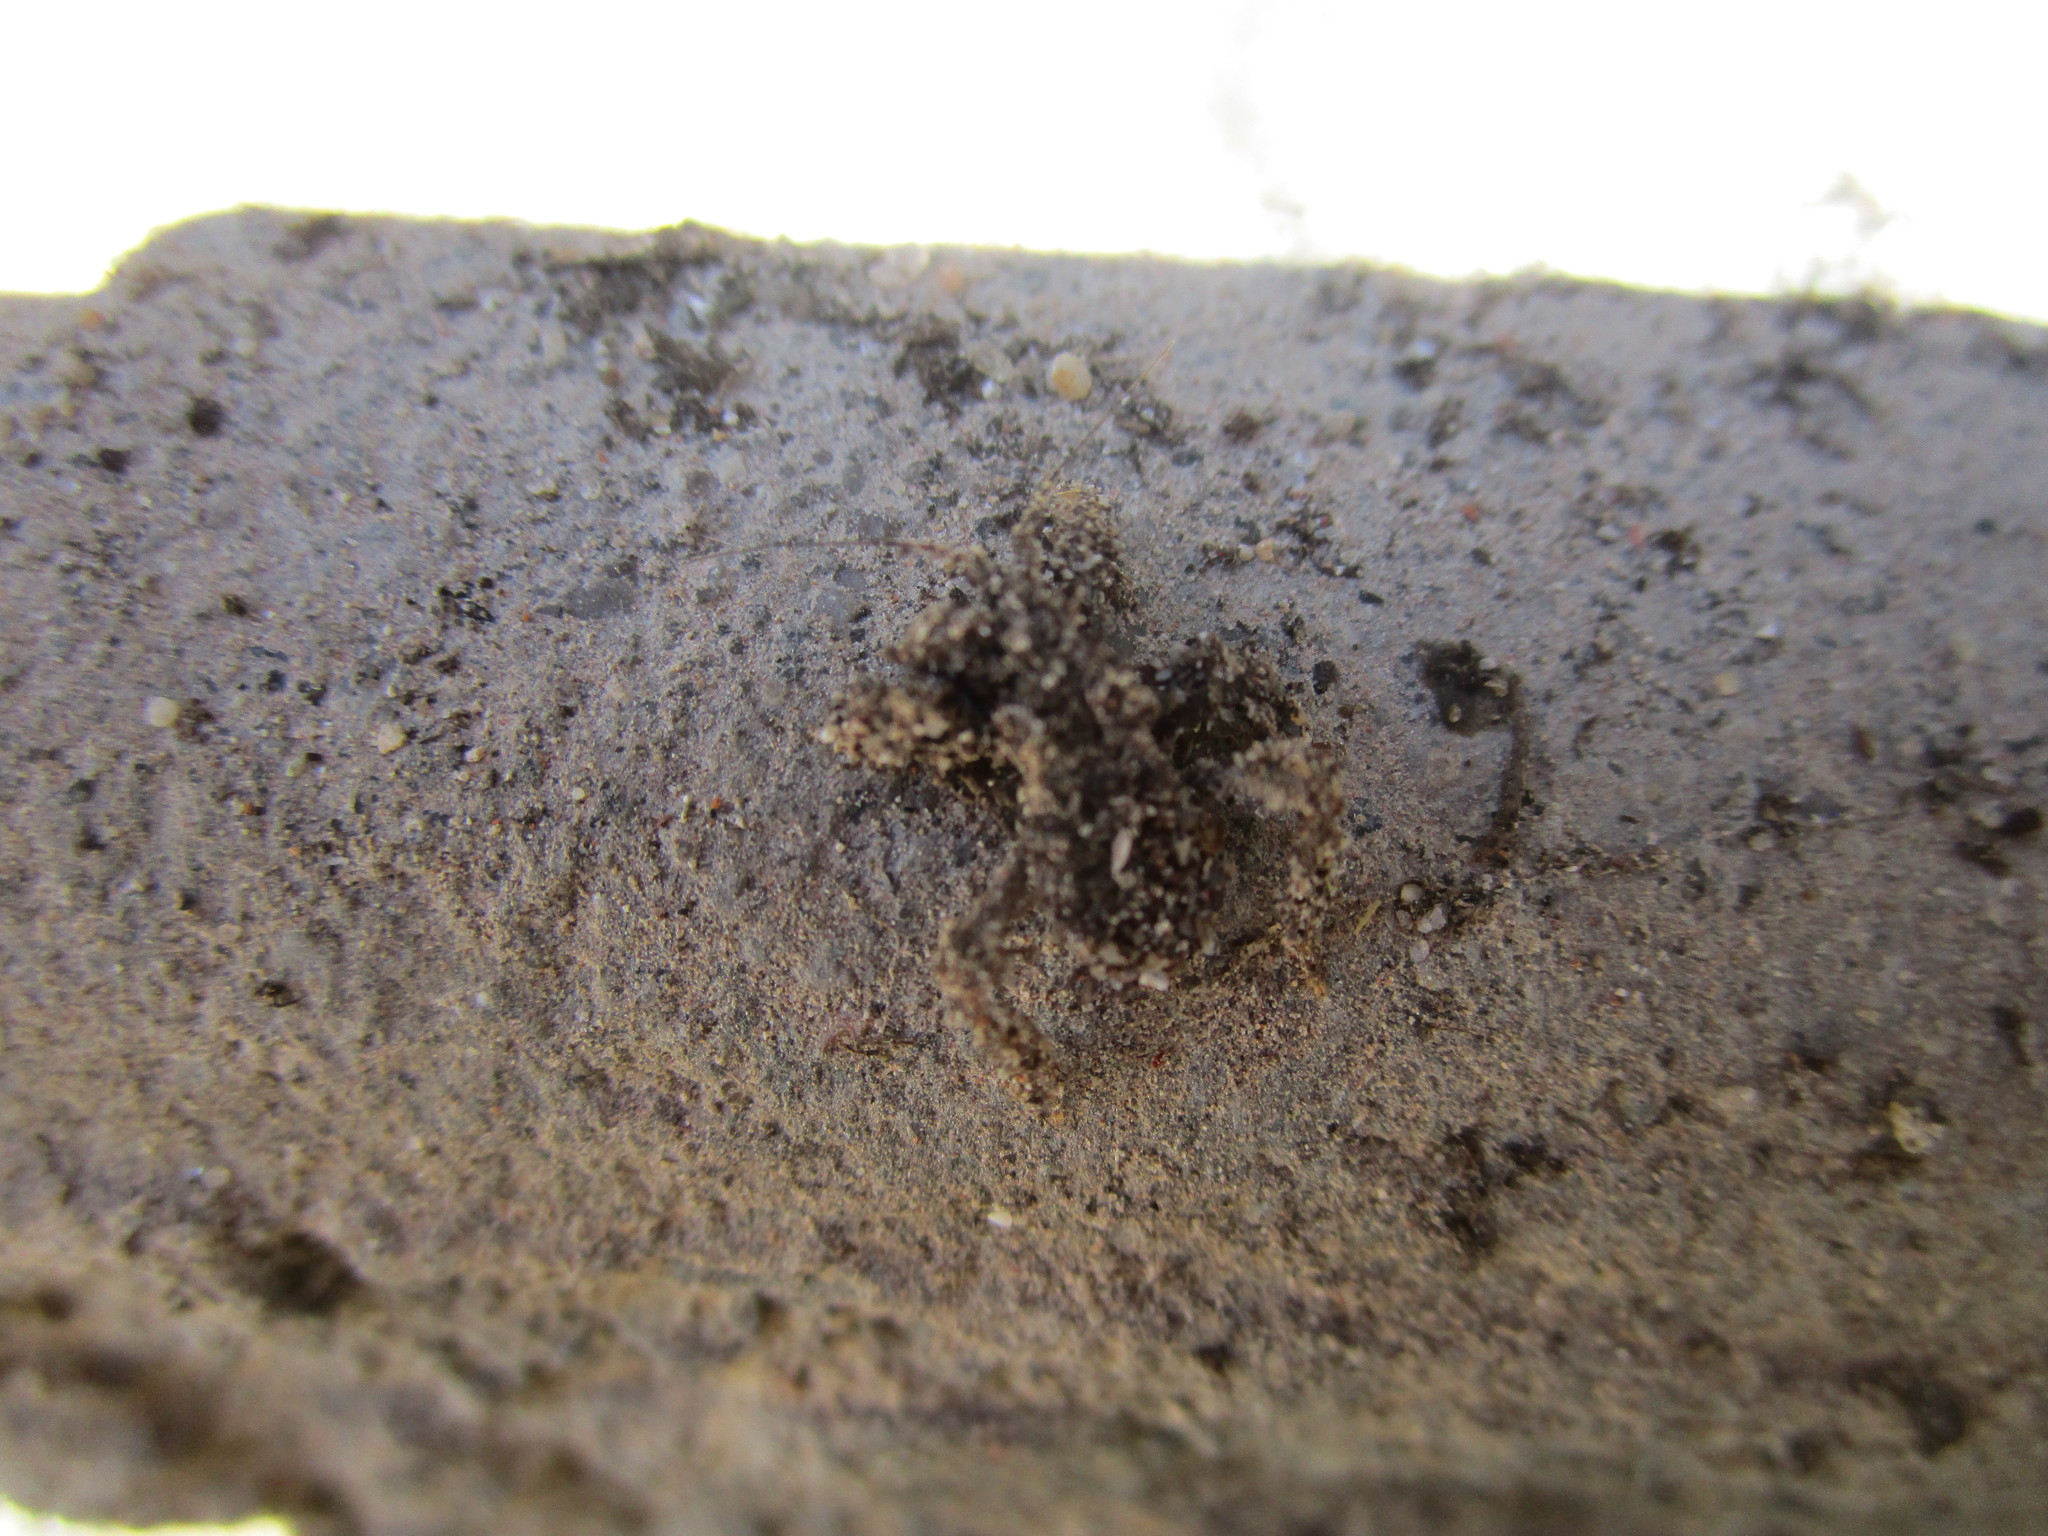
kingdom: Animalia
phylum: Arthropoda
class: Insecta
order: Hemiptera
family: Reduviidae
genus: Reduvius
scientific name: Reduvius personatus
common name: Masked hunter
